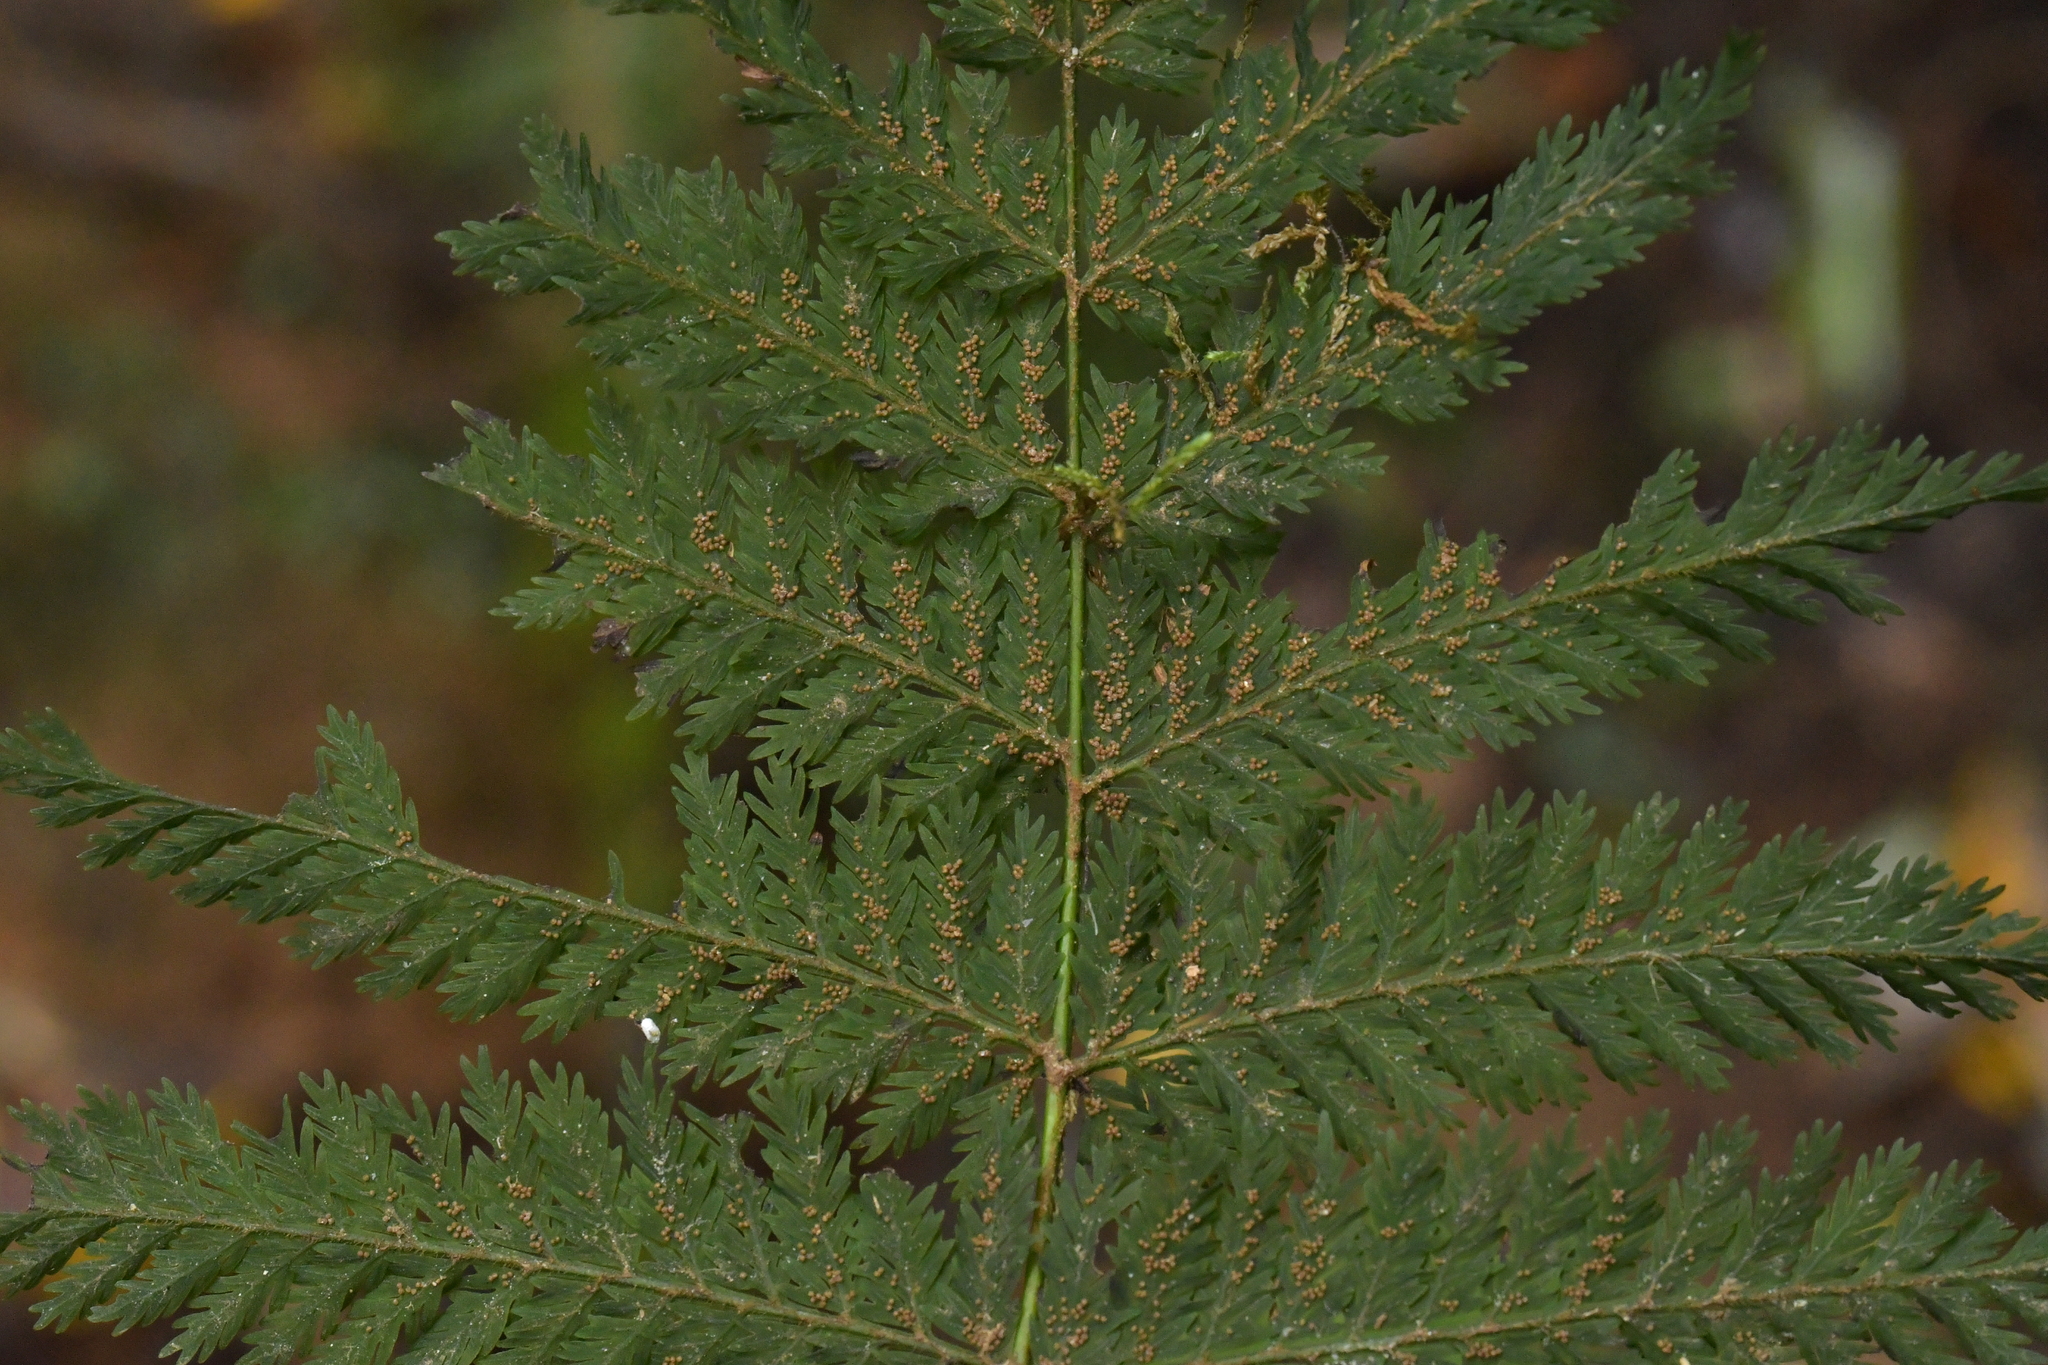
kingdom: Plantae
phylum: Tracheophyta
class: Polypodiopsida
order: Osmundales
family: Osmundaceae
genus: Leptopteris
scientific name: Leptopteris hymenophylloides
